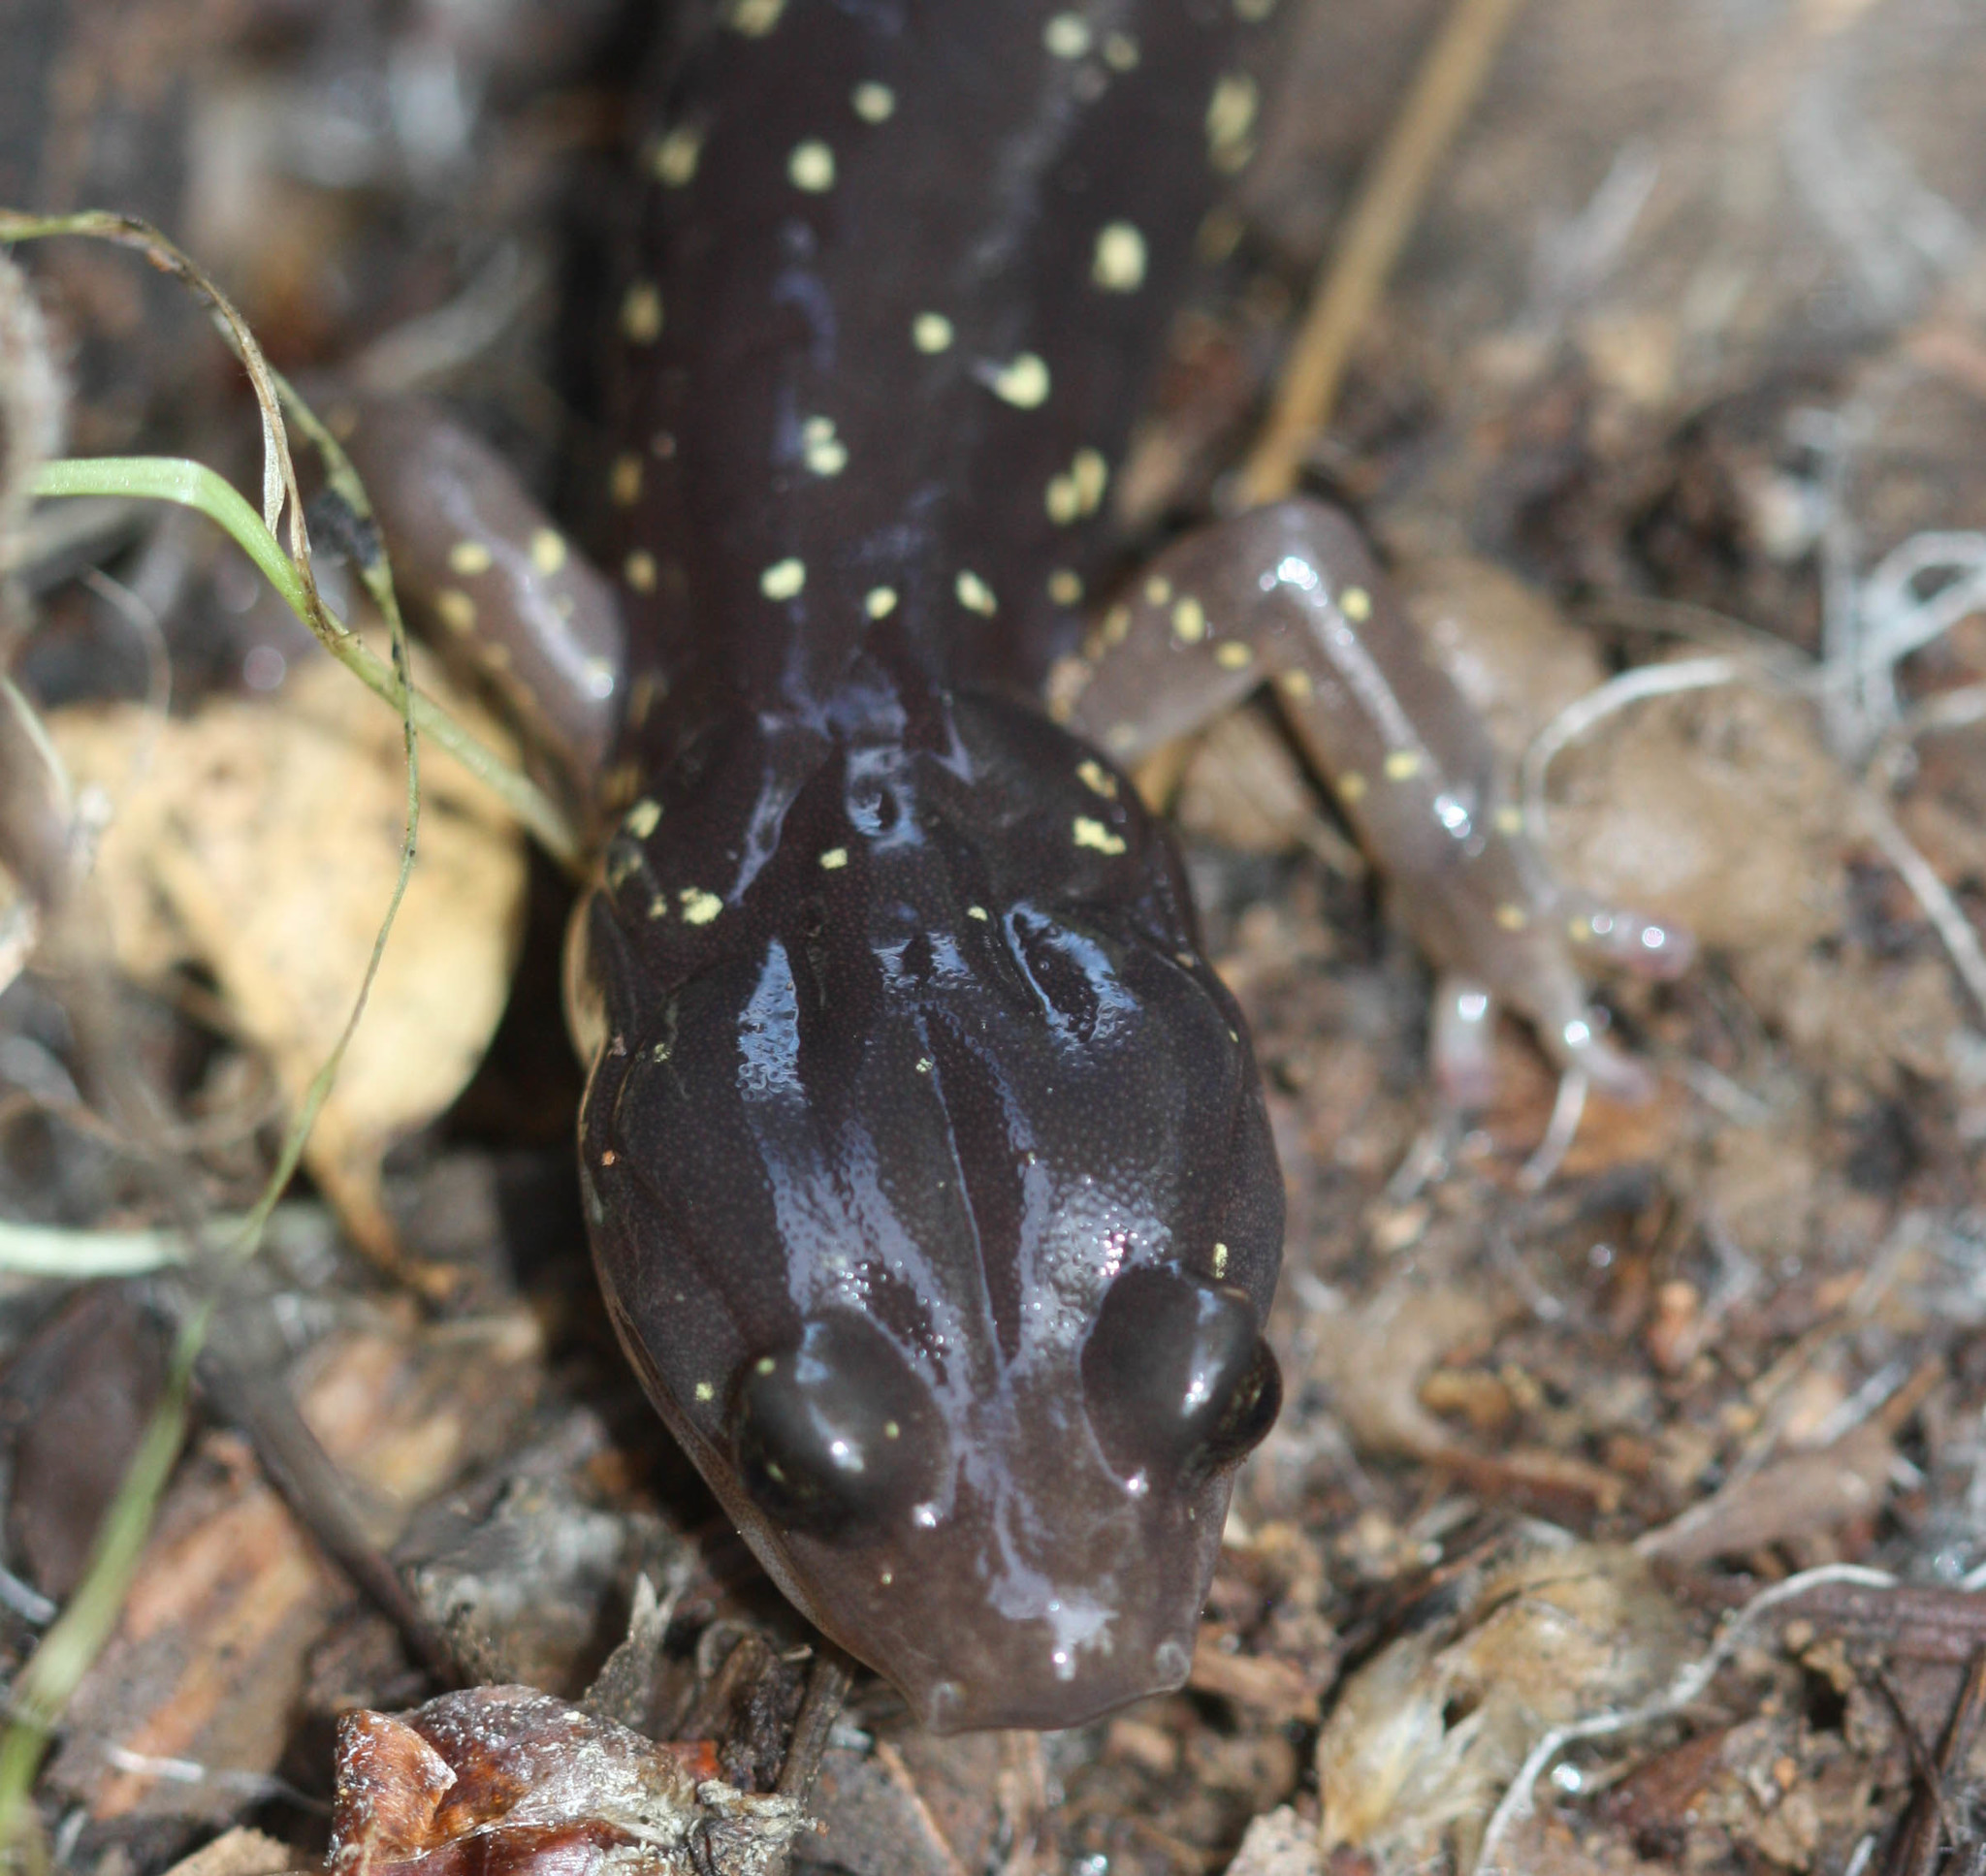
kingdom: Animalia
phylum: Chordata
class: Amphibia
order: Caudata
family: Plethodontidae
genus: Aneides
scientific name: Aneides lugubris
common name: Arboreal salamander
